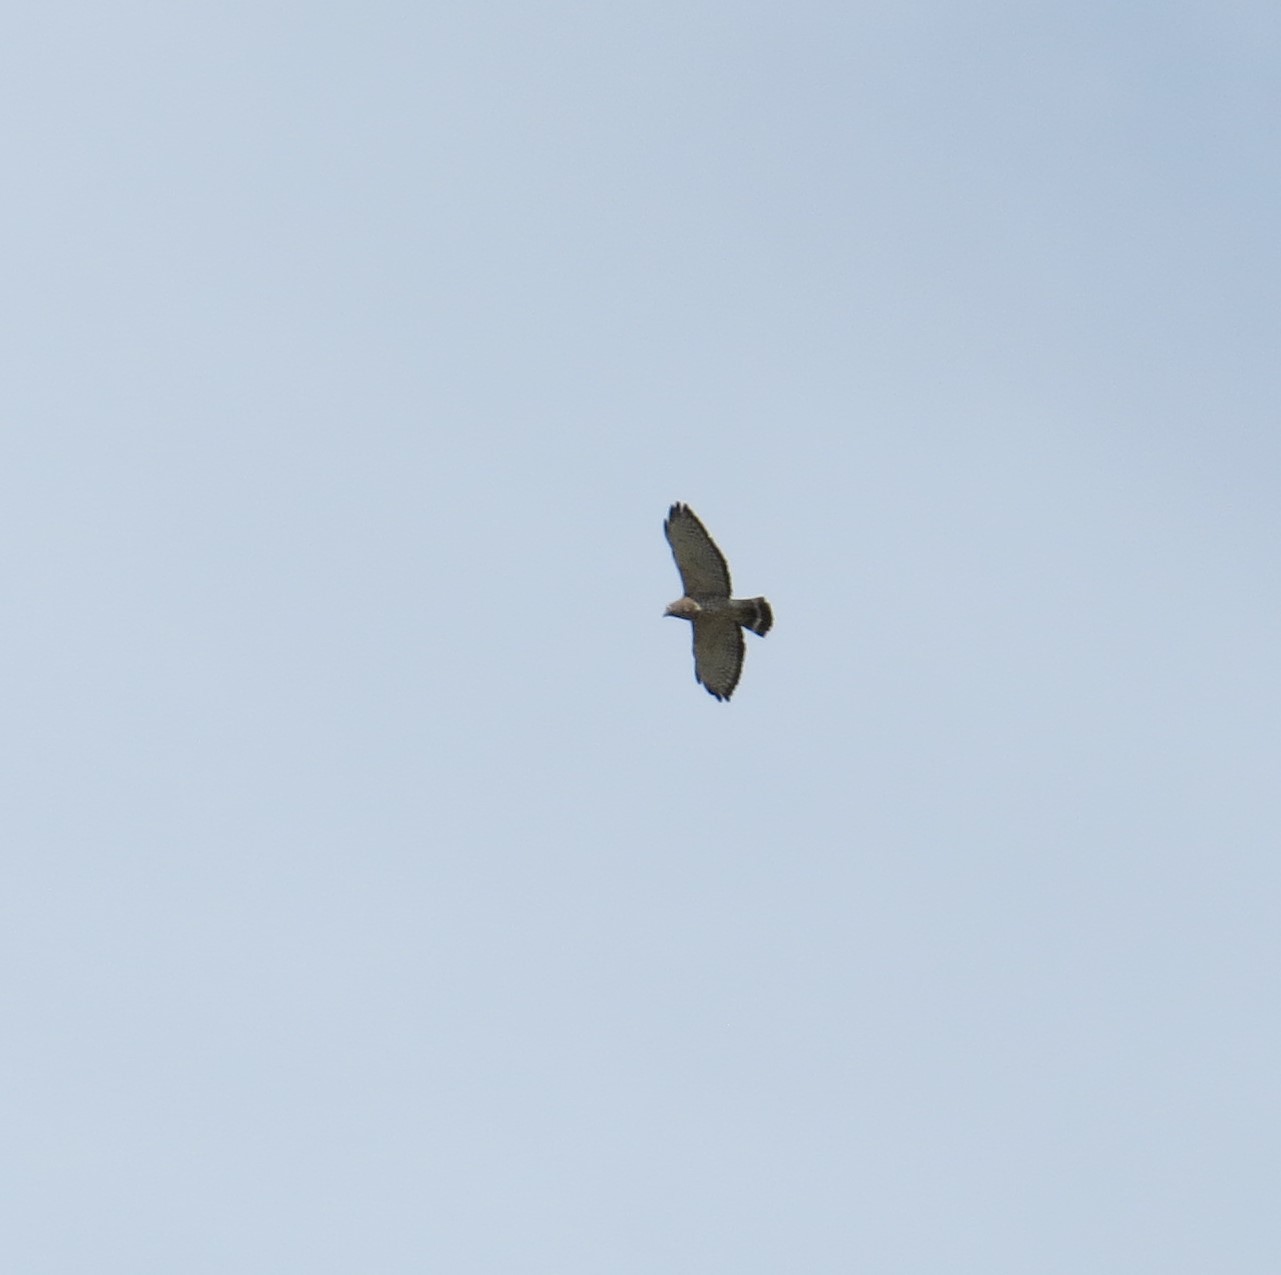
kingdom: Animalia
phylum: Chordata
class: Aves
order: Accipitriformes
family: Accipitridae
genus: Buteo
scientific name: Buteo platypterus
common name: Broad-winged hawk
